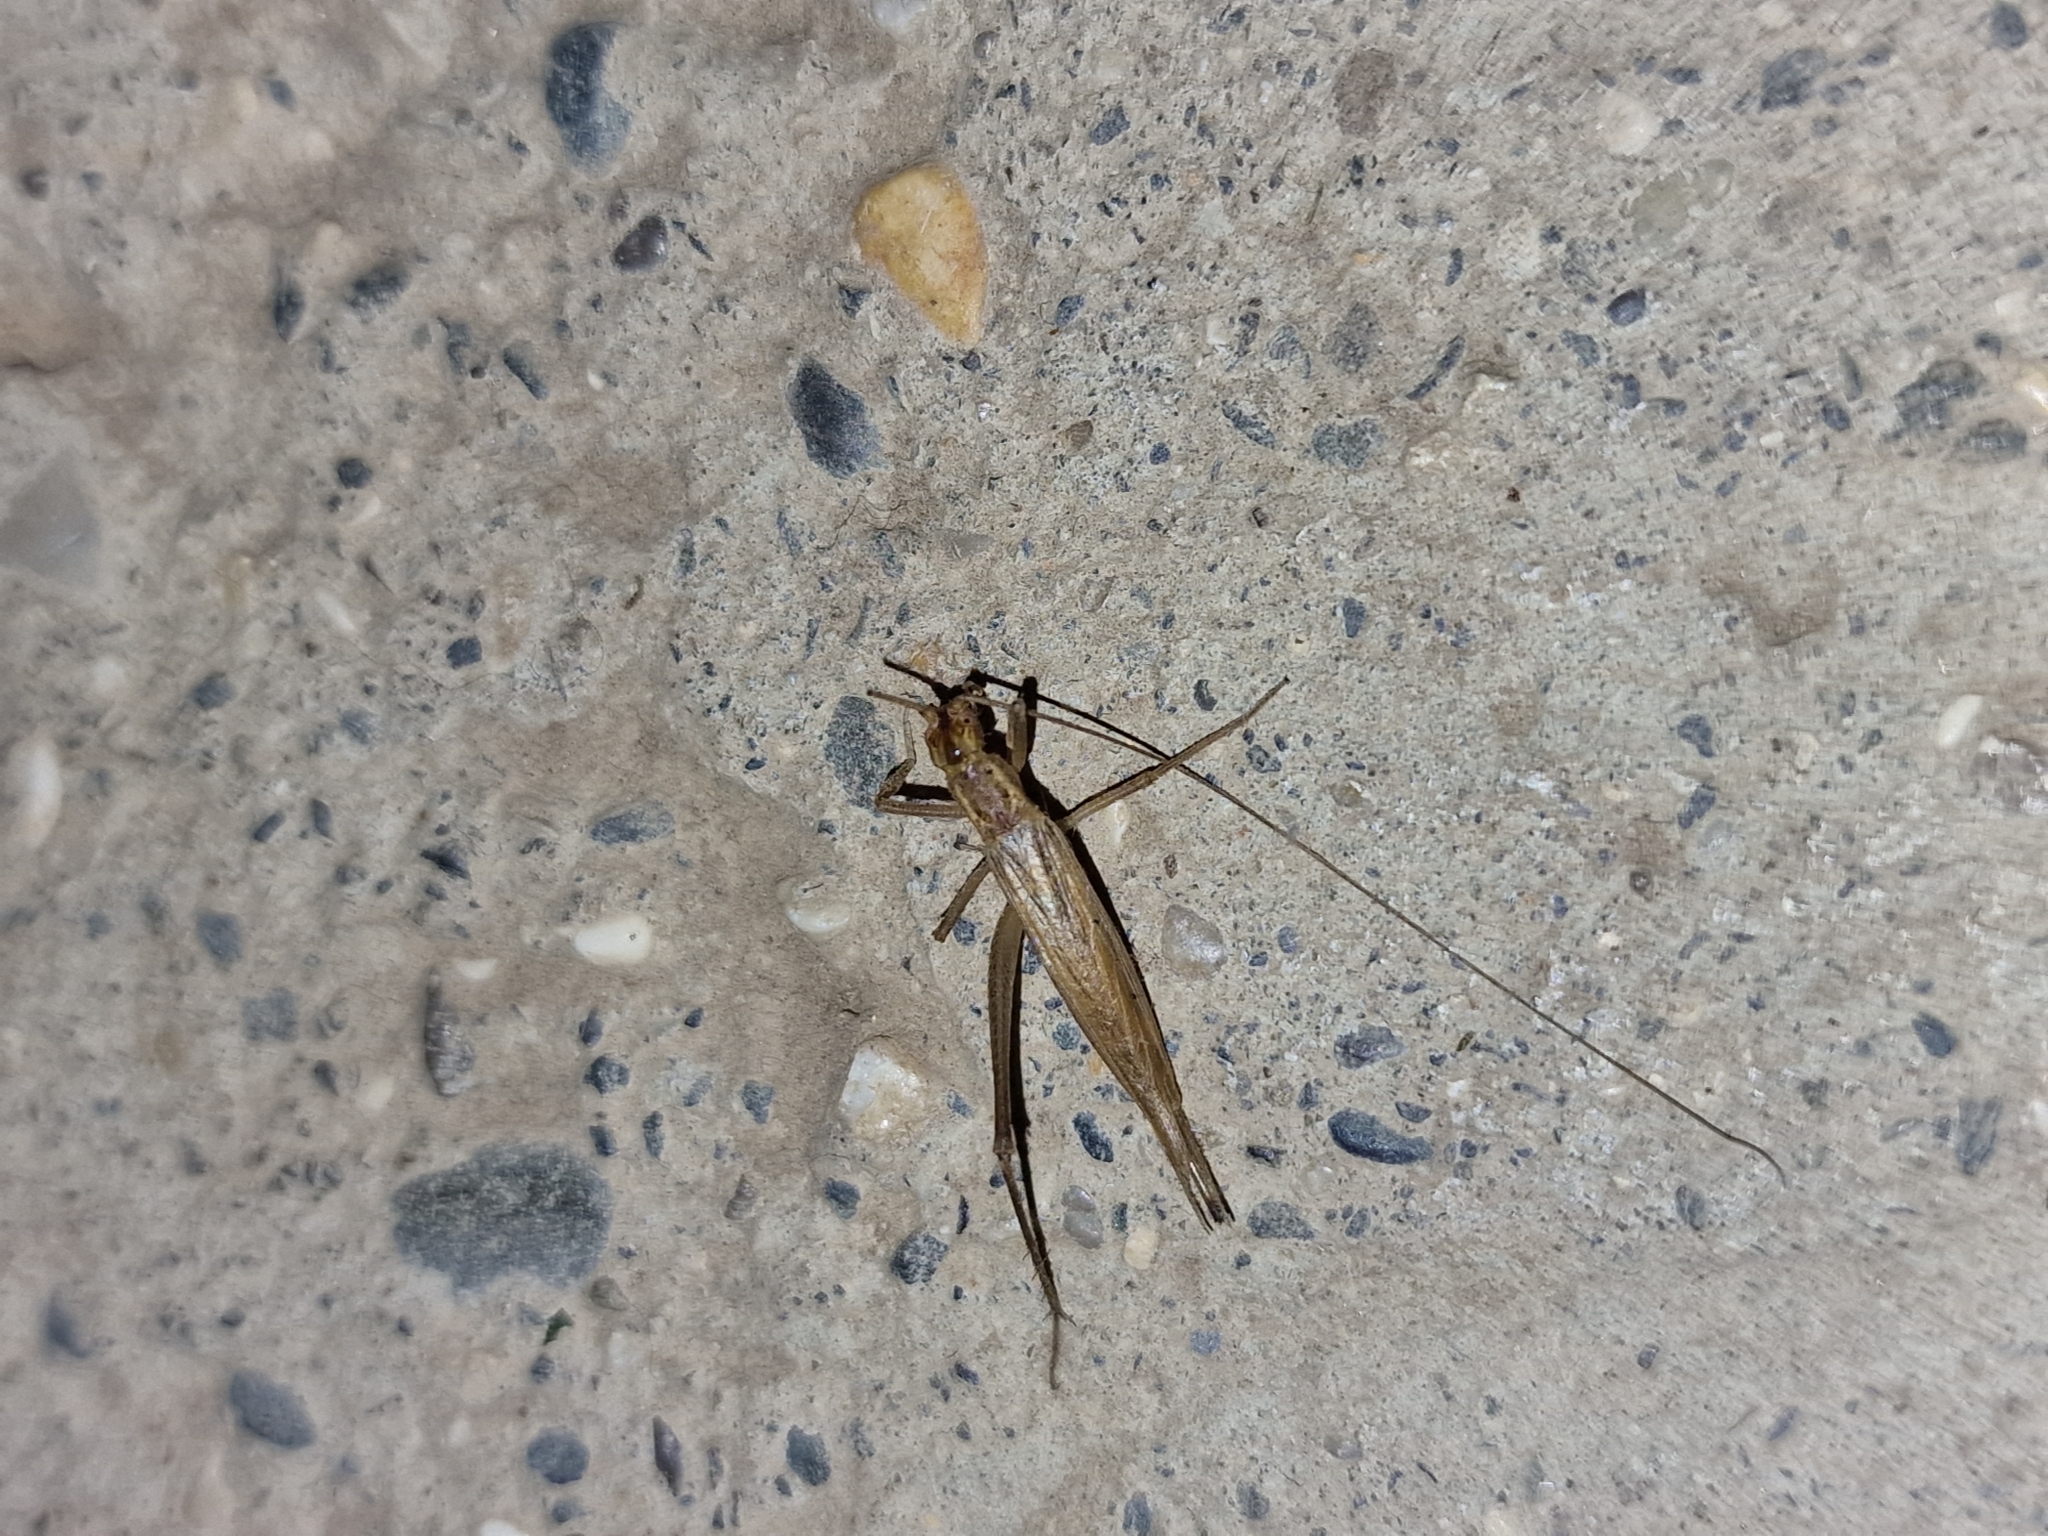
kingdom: Animalia
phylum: Arthropoda
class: Insecta
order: Orthoptera
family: Gryllidae
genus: Oecanthus
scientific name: Oecanthus pellucens
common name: Tree-cricket
